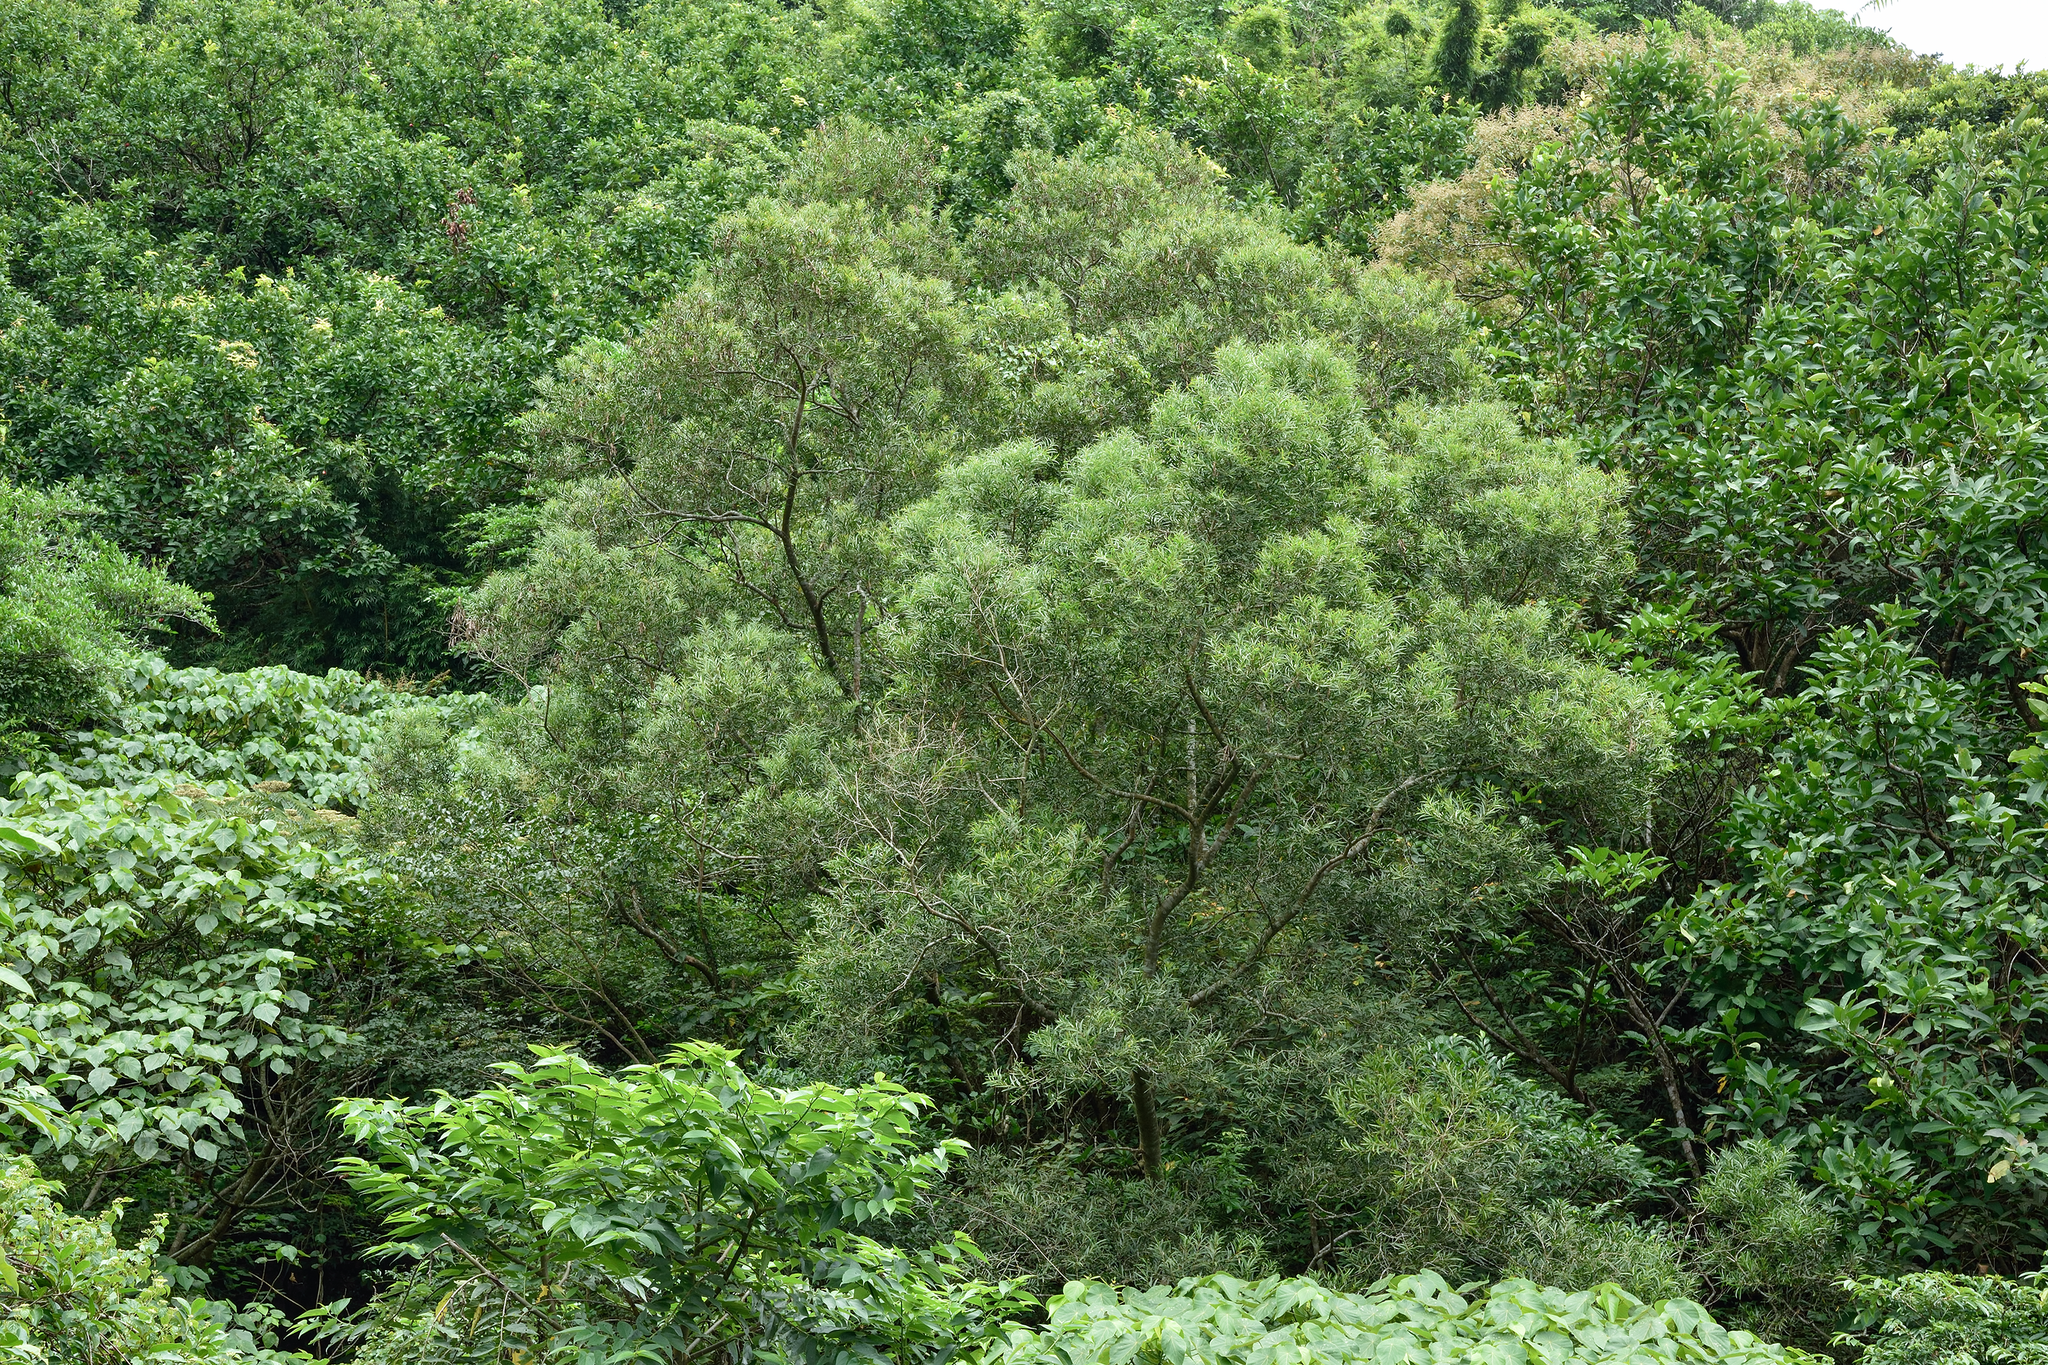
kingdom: Plantae
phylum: Tracheophyta
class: Magnoliopsida
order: Fabales
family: Fabaceae
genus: Acacia
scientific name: Acacia confusa
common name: Formosan koa
